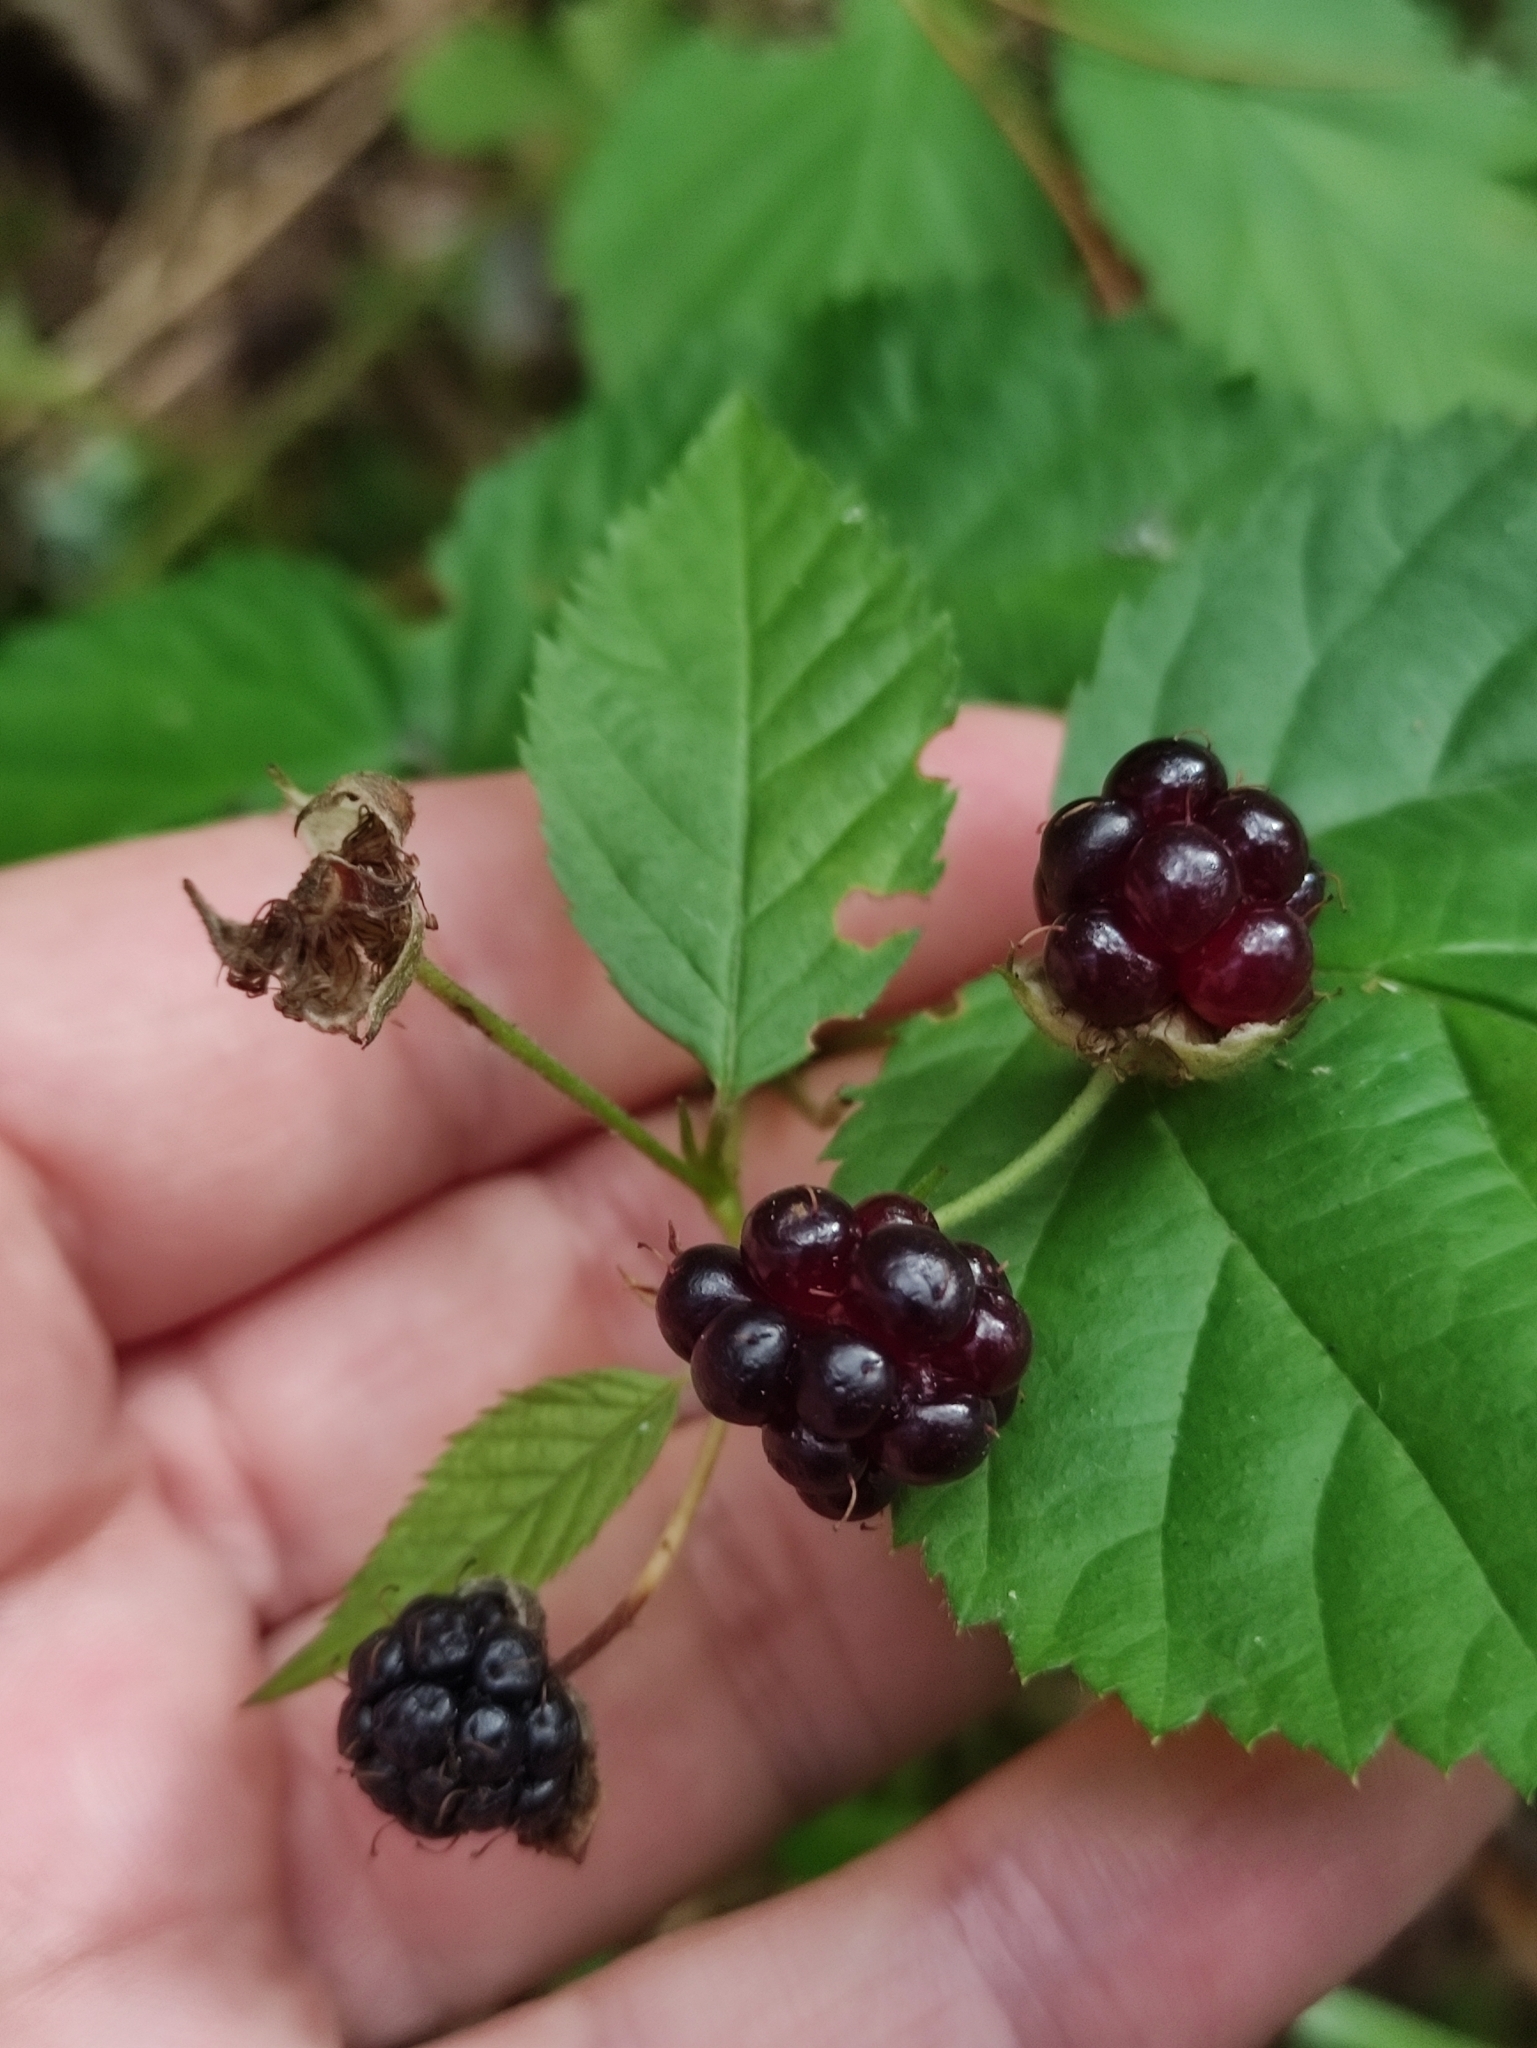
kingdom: Plantae
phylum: Tracheophyta
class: Magnoliopsida
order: Rosales
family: Rosaceae
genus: Rubus
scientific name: Rubus polonicus
